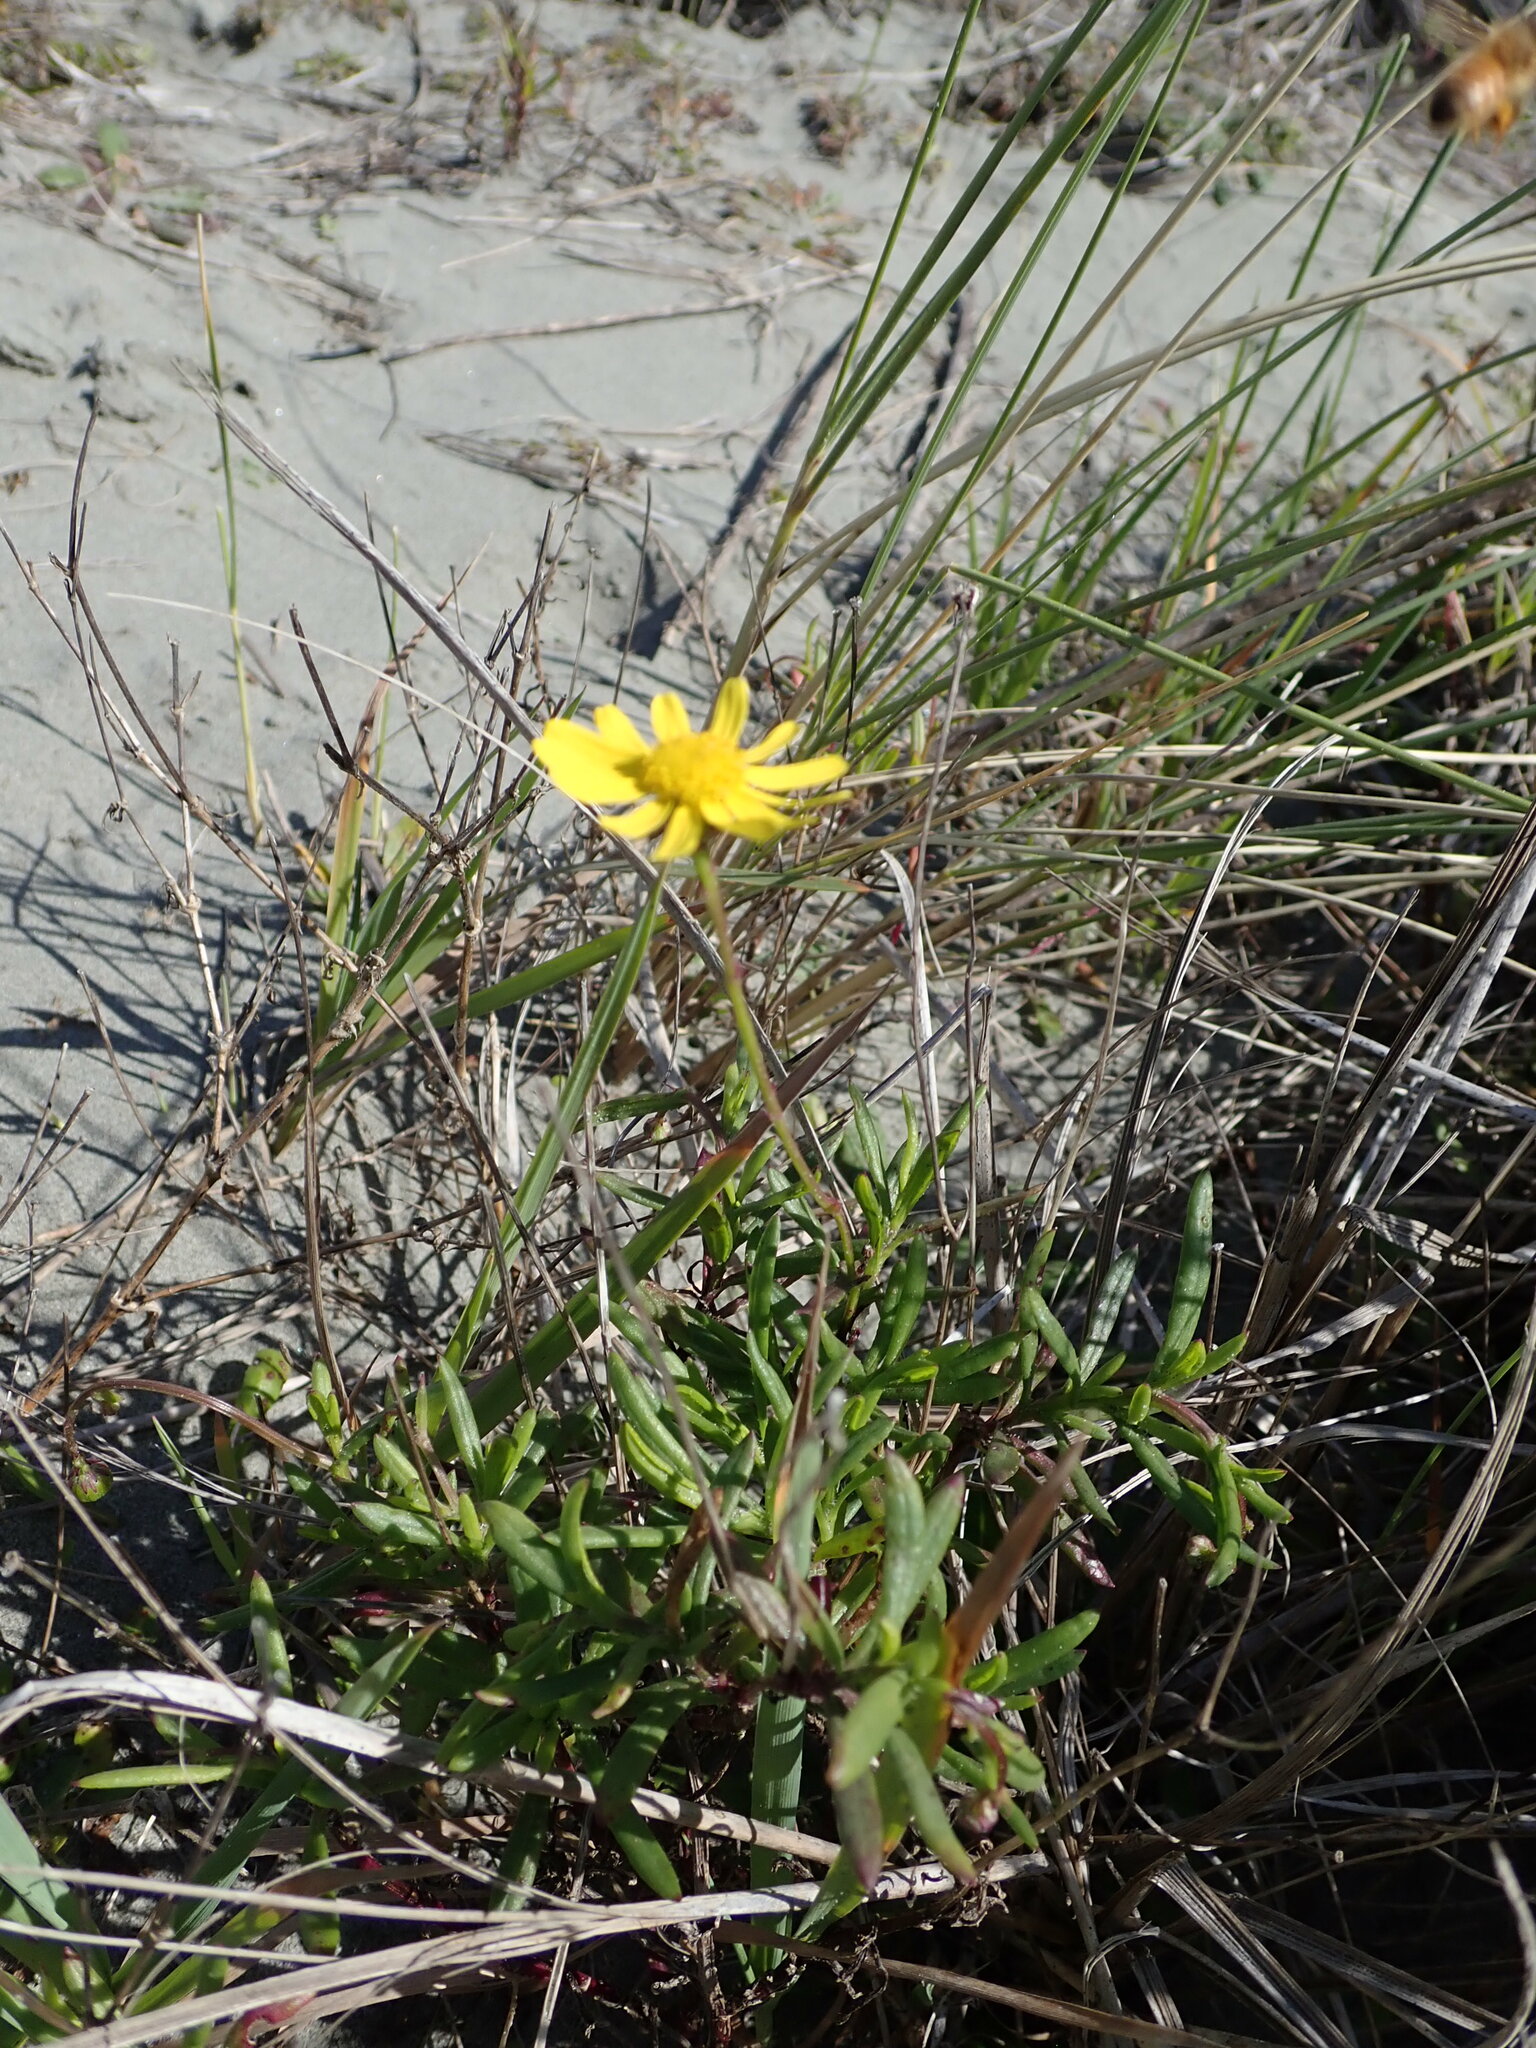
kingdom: Plantae
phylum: Tracheophyta
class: Magnoliopsida
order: Asterales
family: Asteraceae
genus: Senecio
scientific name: Senecio skirrhodon
